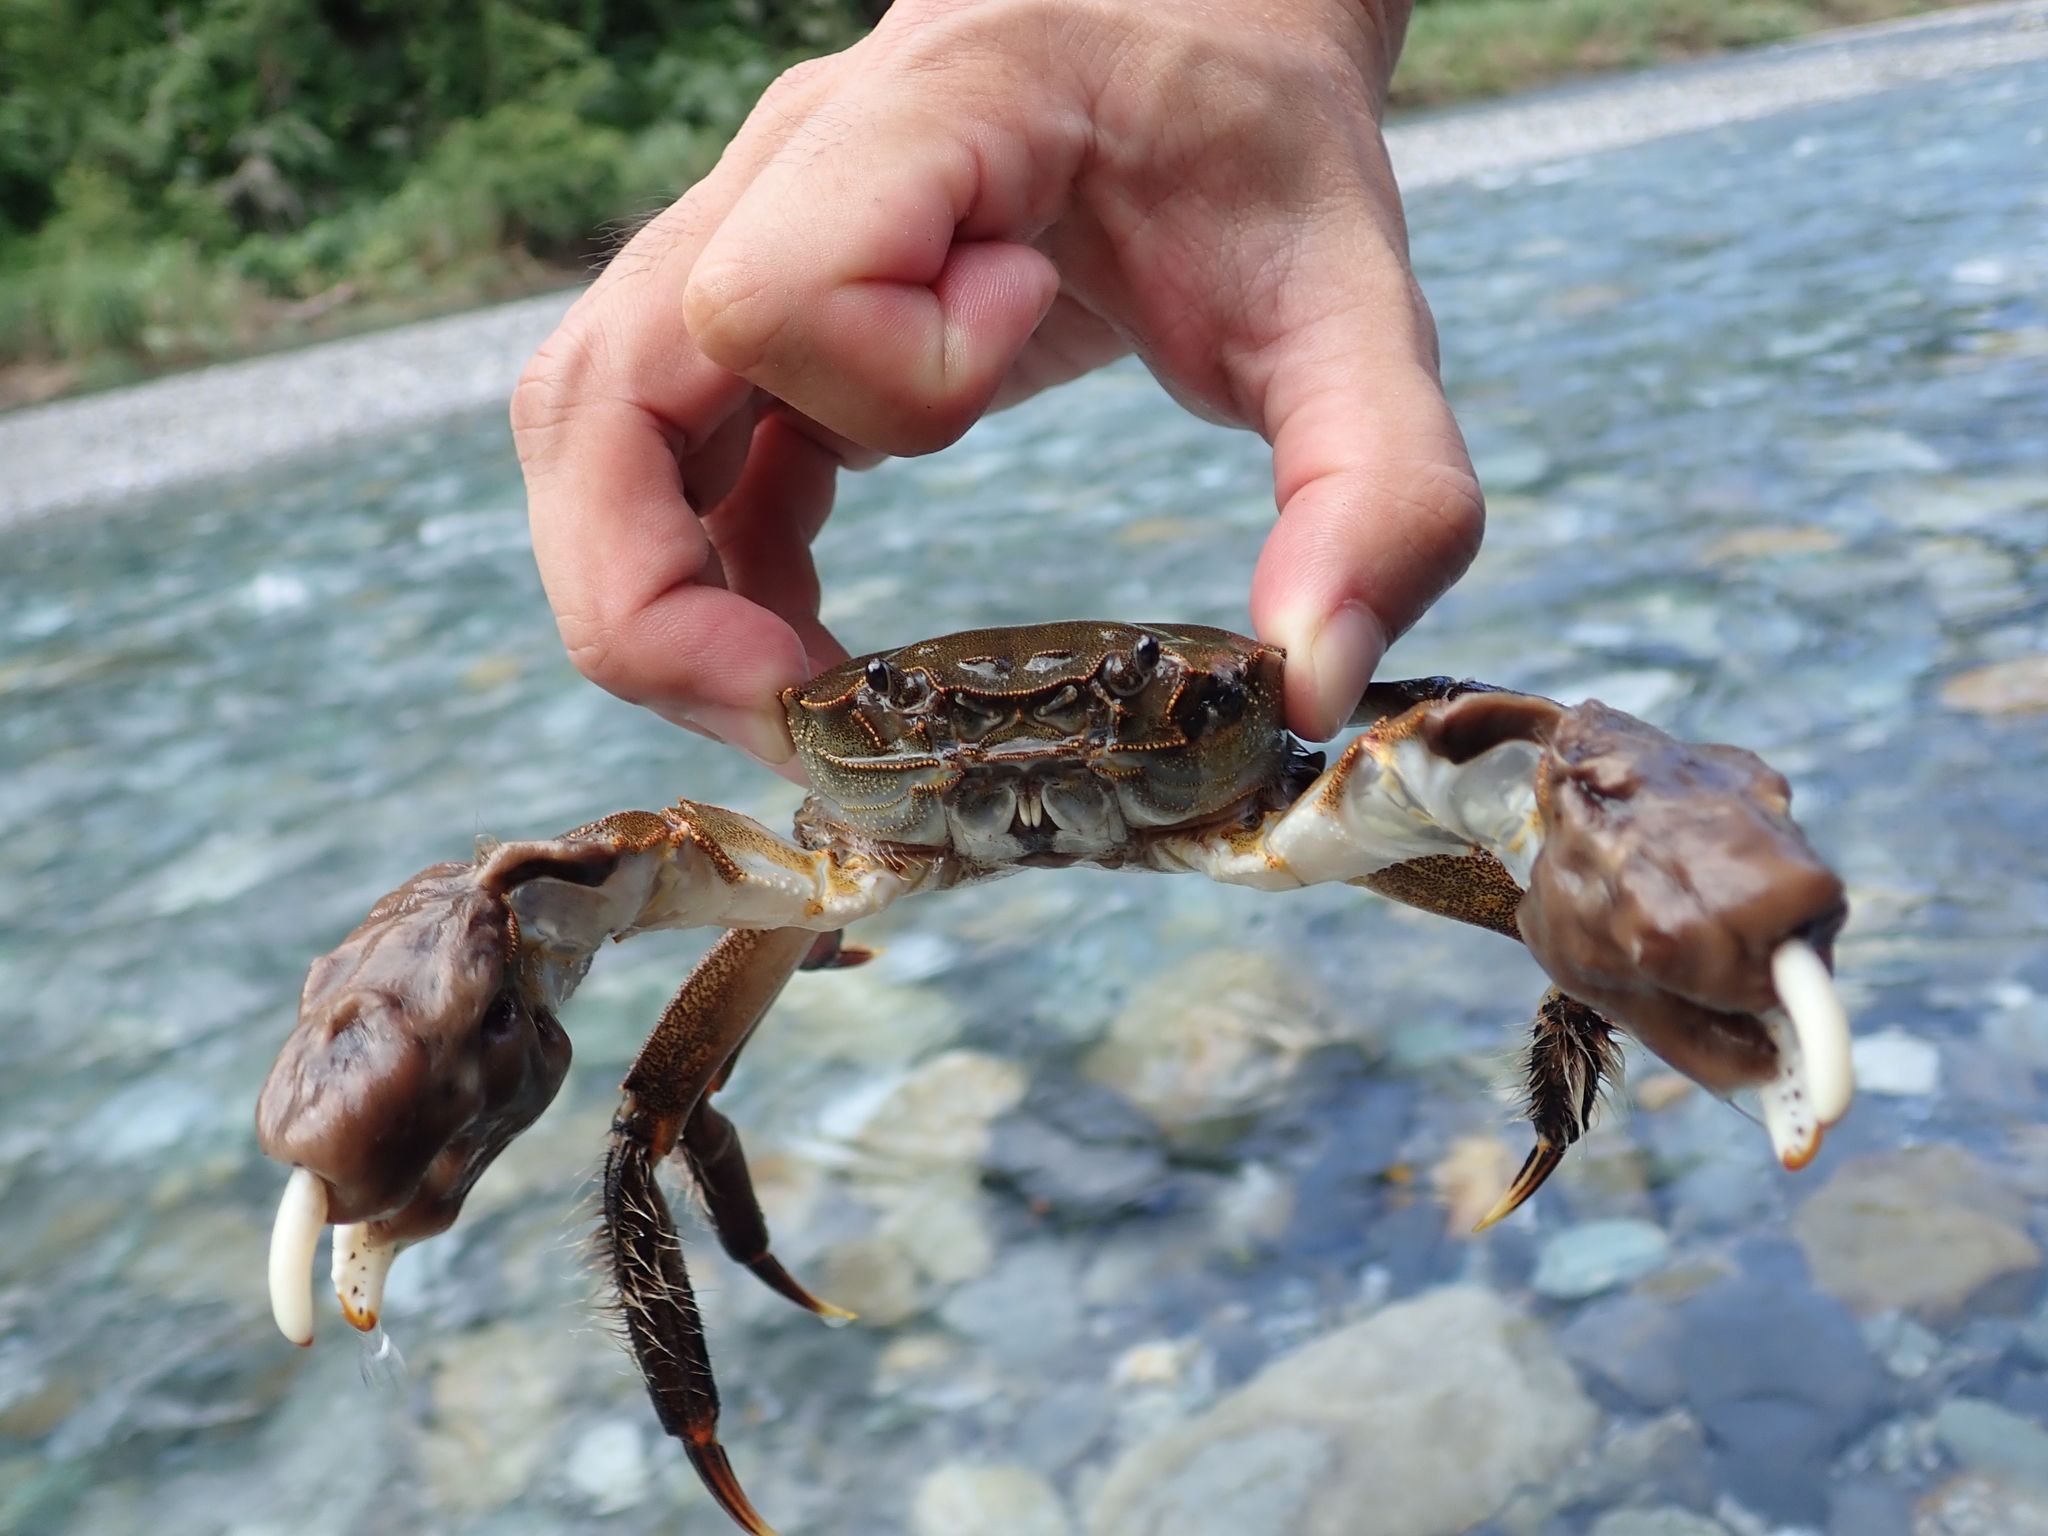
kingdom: Animalia
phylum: Arthropoda
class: Malacostraca
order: Decapoda
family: Varunidae
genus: Eriocheir
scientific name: Eriocheir japonica
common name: Japanese mitten crab
